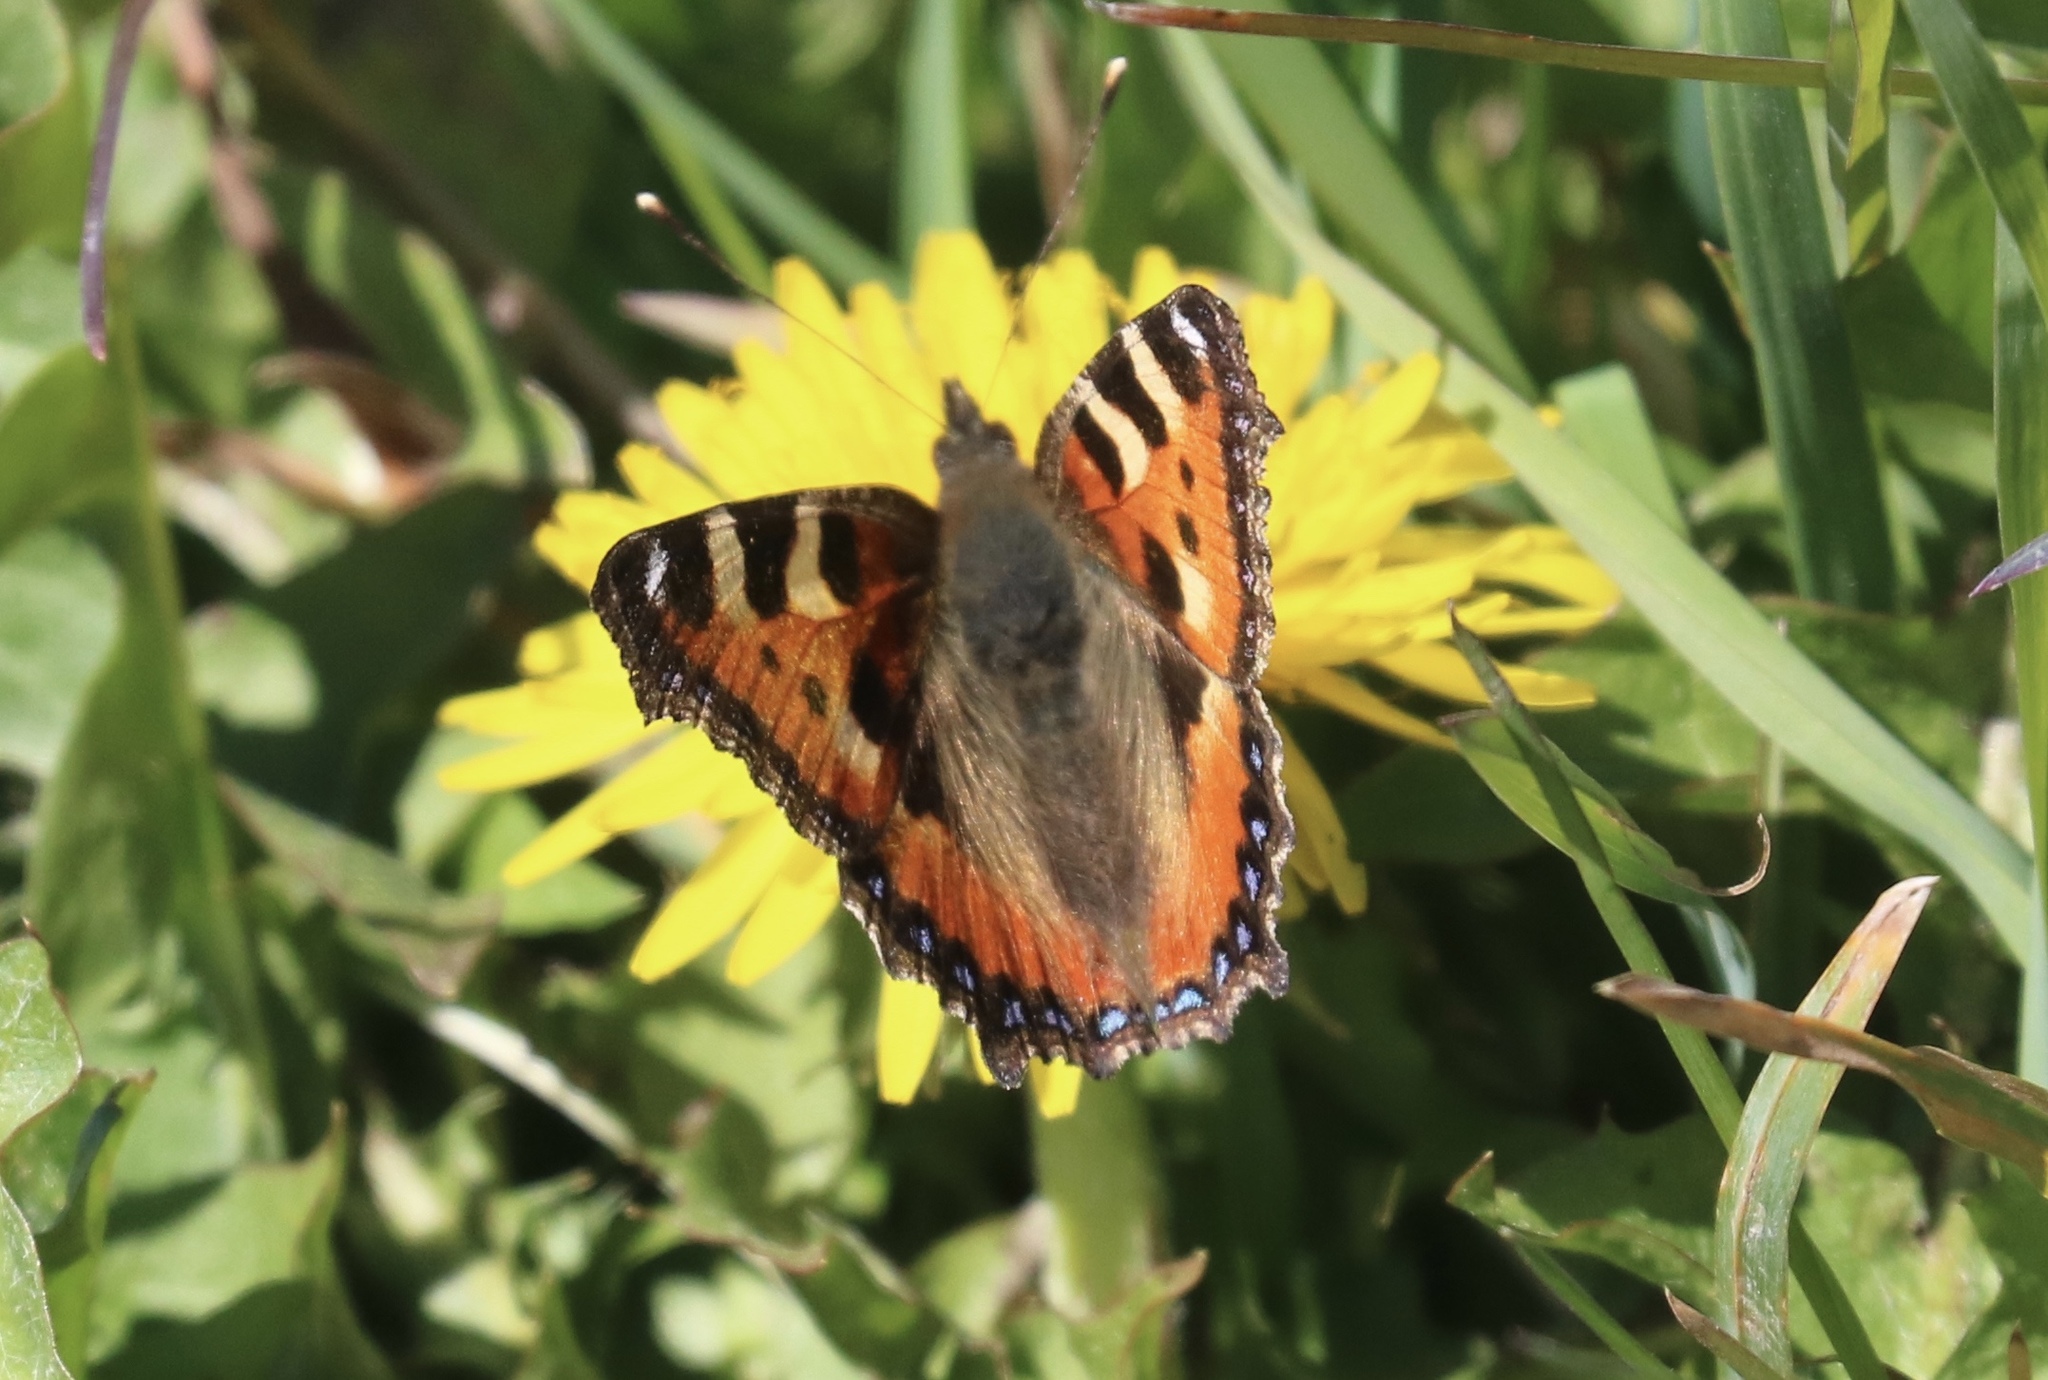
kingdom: Animalia
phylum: Arthropoda
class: Insecta
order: Lepidoptera
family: Nymphalidae
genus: Aglais
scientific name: Aglais urticae
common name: Small tortoiseshell
